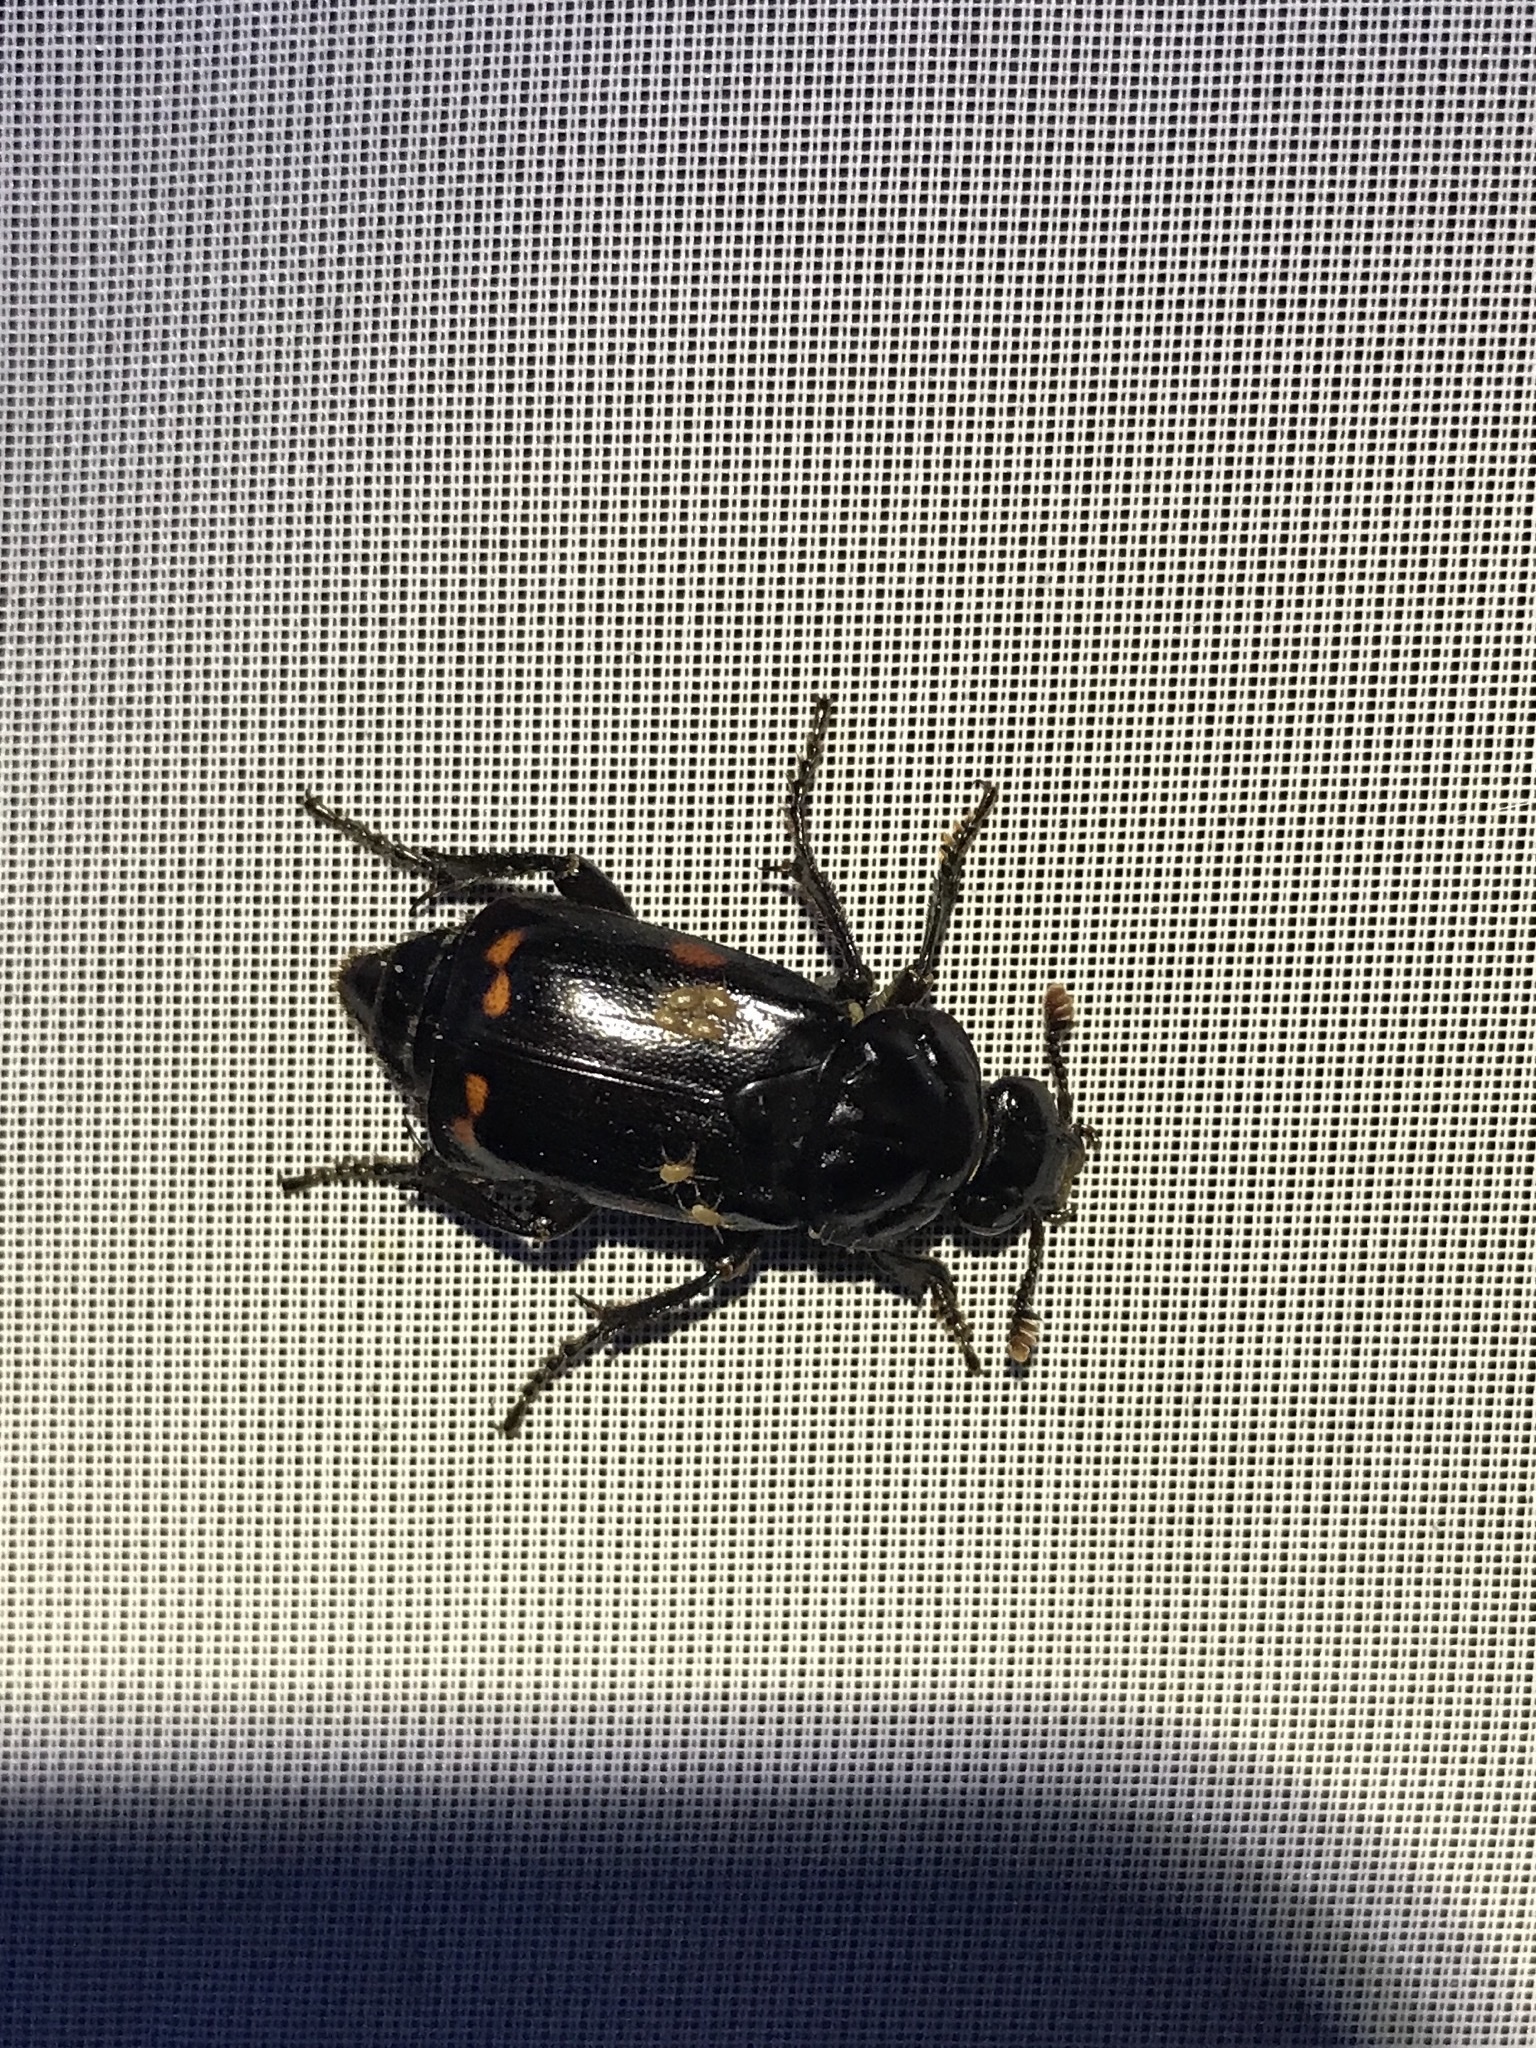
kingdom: Animalia
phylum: Arthropoda
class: Insecta
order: Coleoptera
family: Staphylinidae
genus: Nicrophorus
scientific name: Nicrophorus pustulatus
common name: Pustulated carrion beetle
